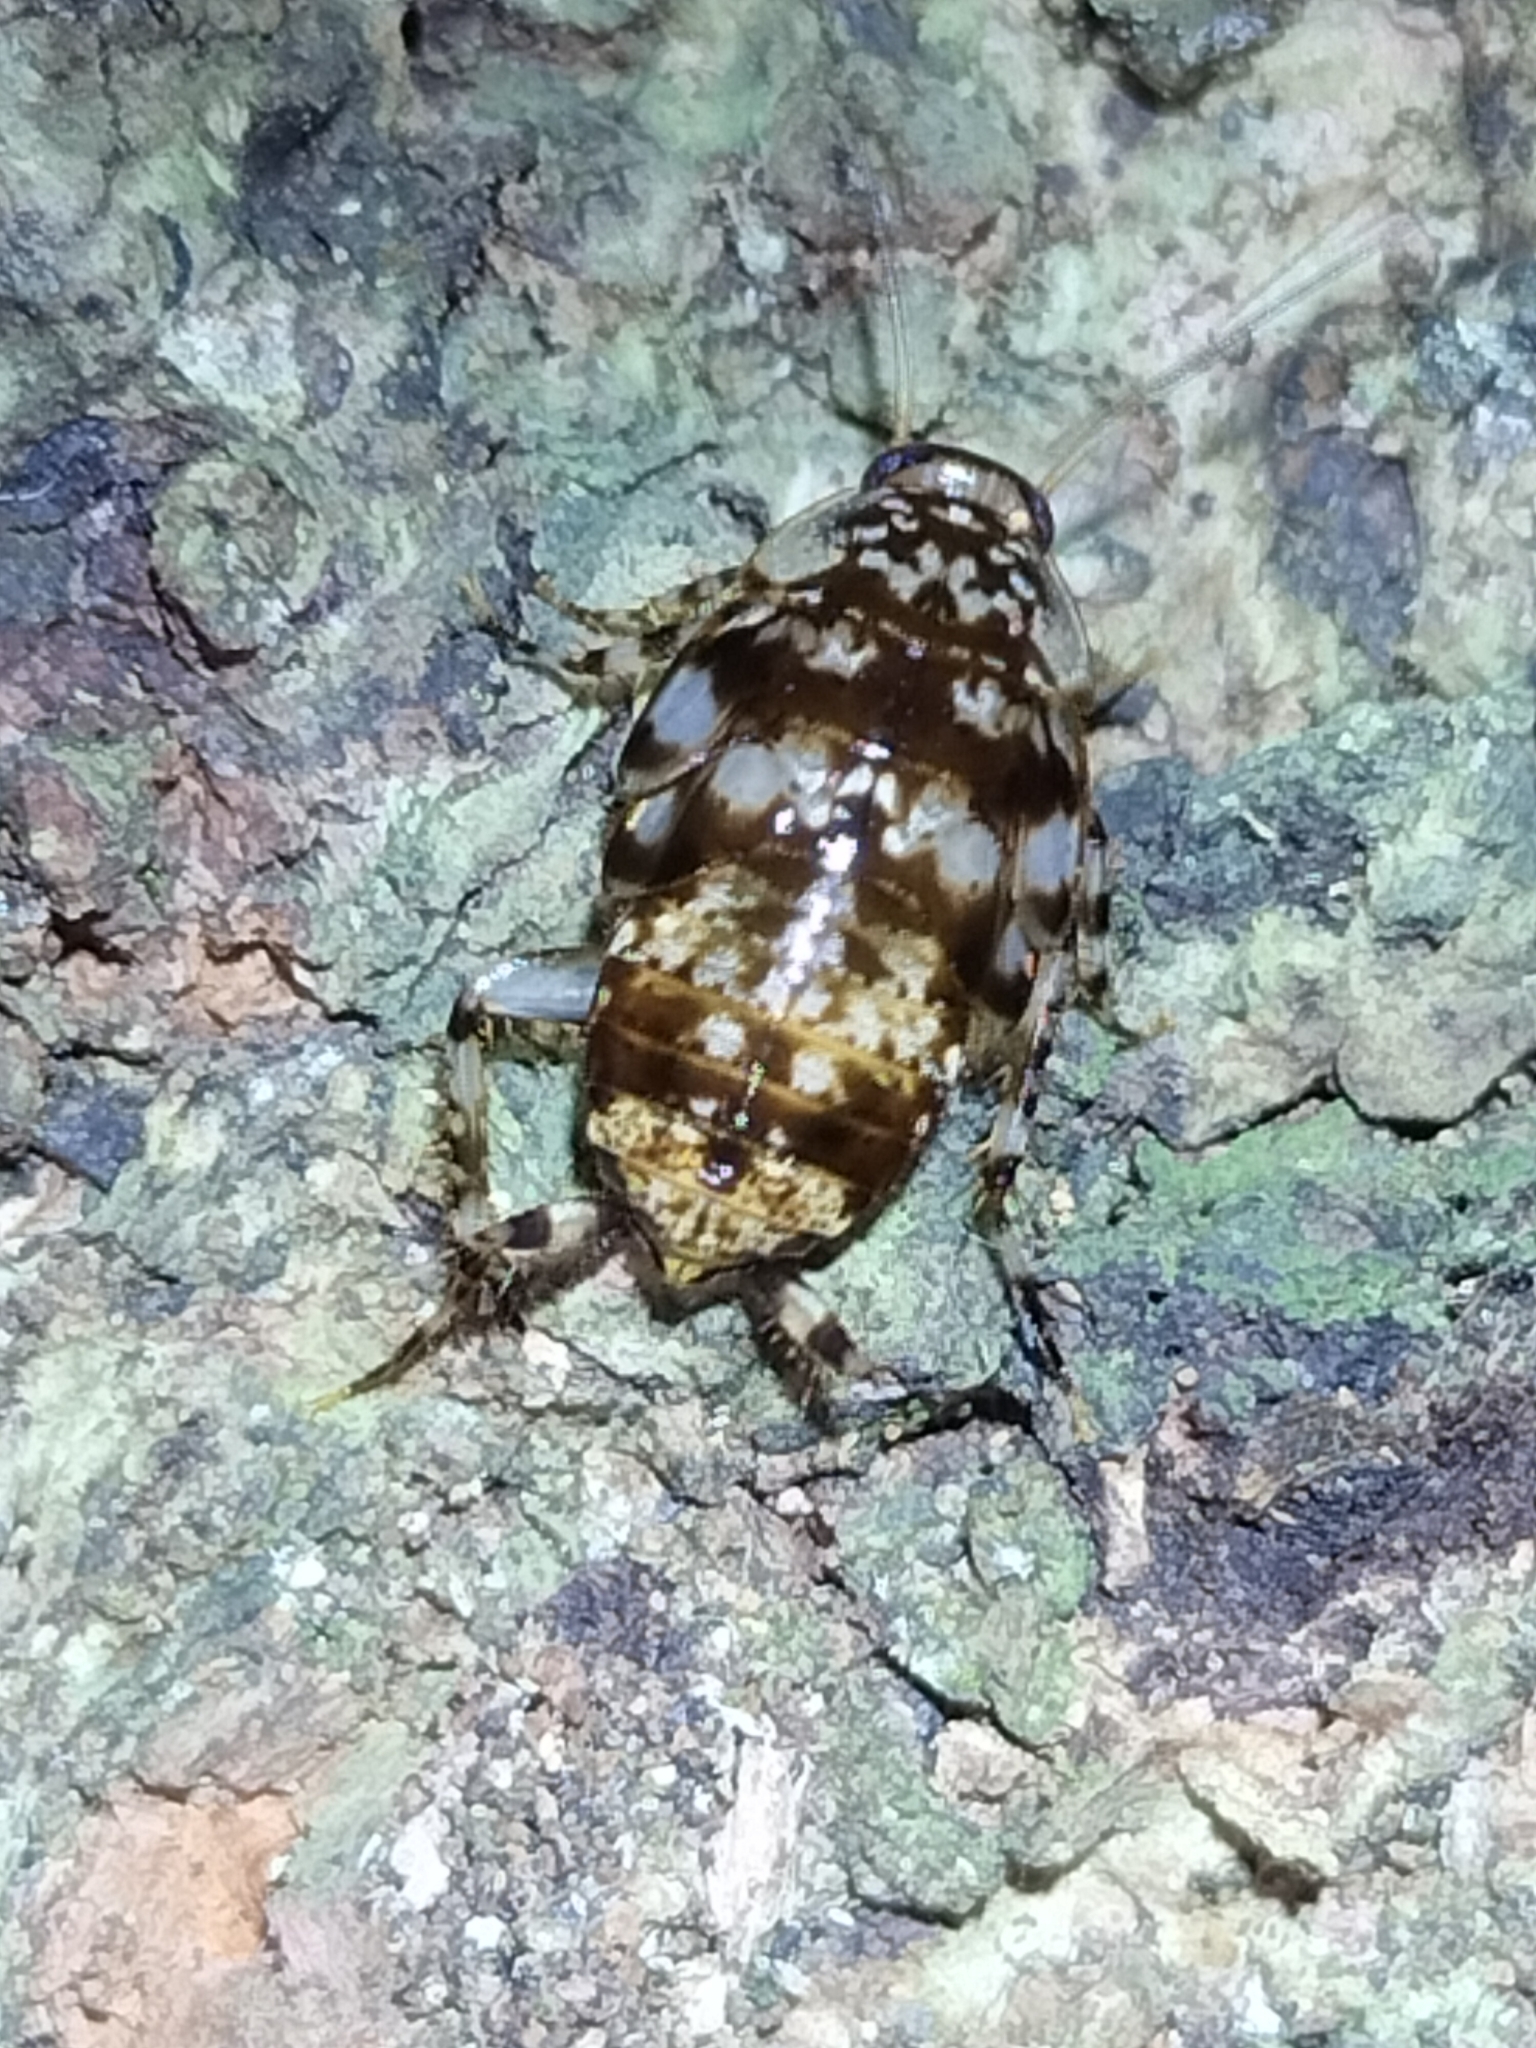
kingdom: Animalia
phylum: Arthropoda
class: Insecta
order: Blattodea
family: Ectobiidae
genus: Allacta
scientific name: Allacta australiensis
